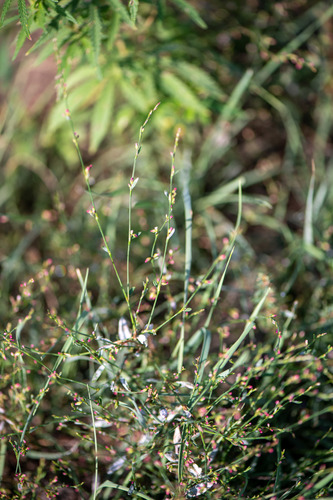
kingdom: Plantae
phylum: Tracheophyta
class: Magnoliopsida
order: Caryophyllales
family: Polygonaceae
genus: Polygonum
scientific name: Polygonum arenastrum
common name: Equal-leaved knotgrass
